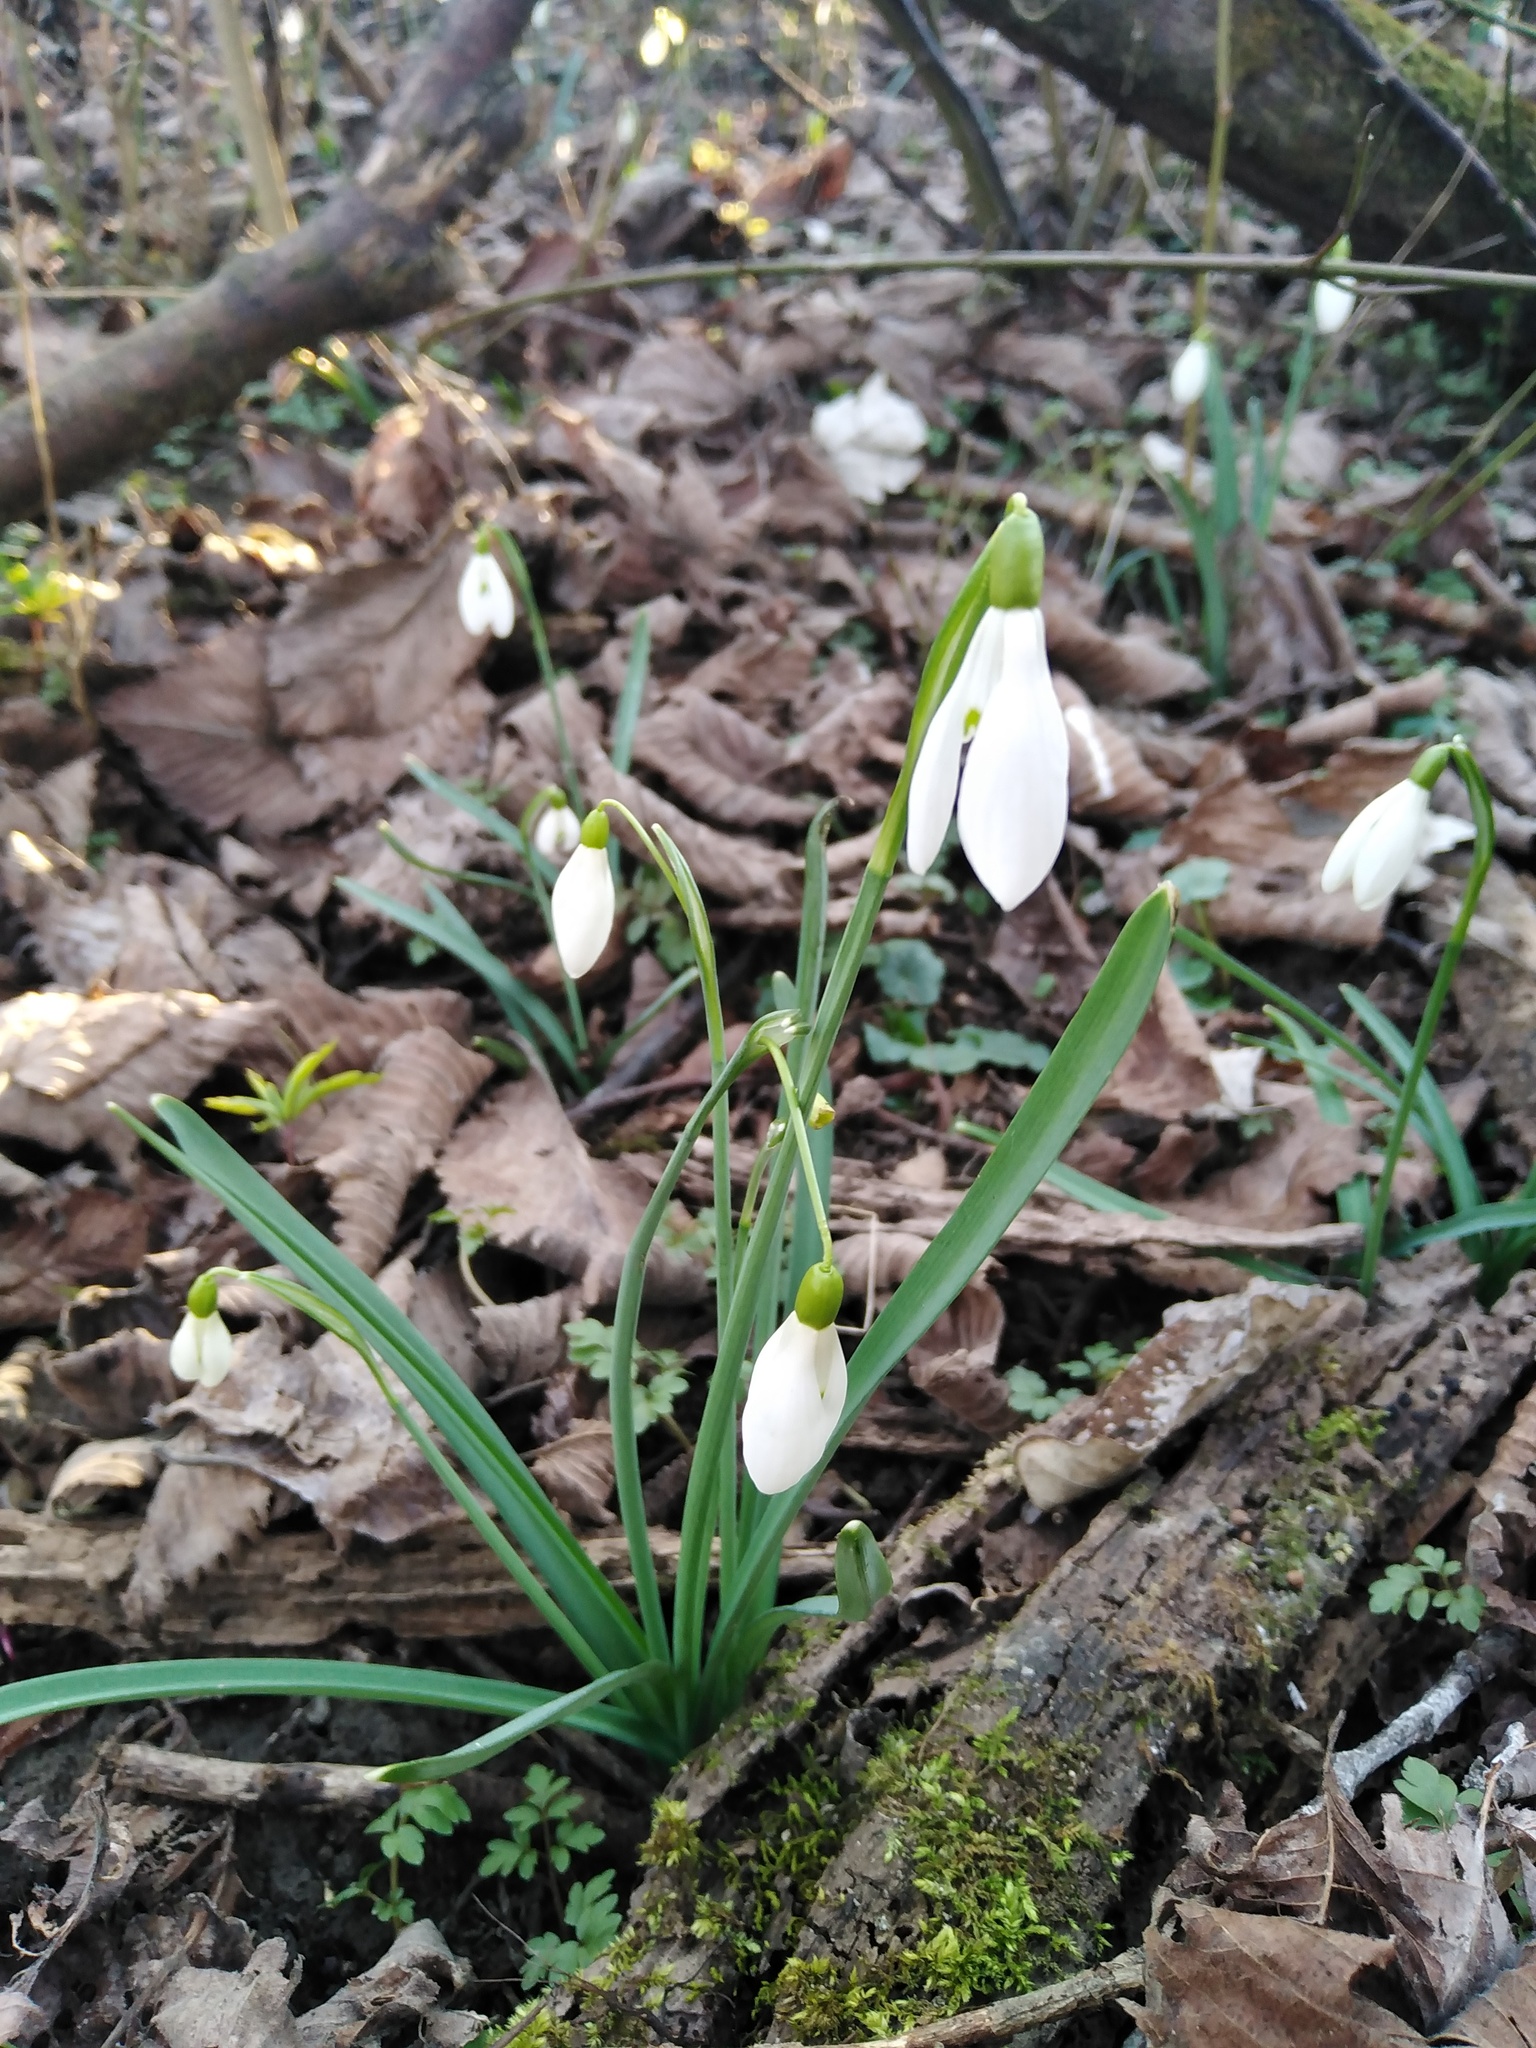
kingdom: Plantae
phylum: Tracheophyta
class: Liliopsida
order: Asparagales
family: Amaryllidaceae
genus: Galanthus
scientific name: Galanthus nivalis
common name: Snowdrop
